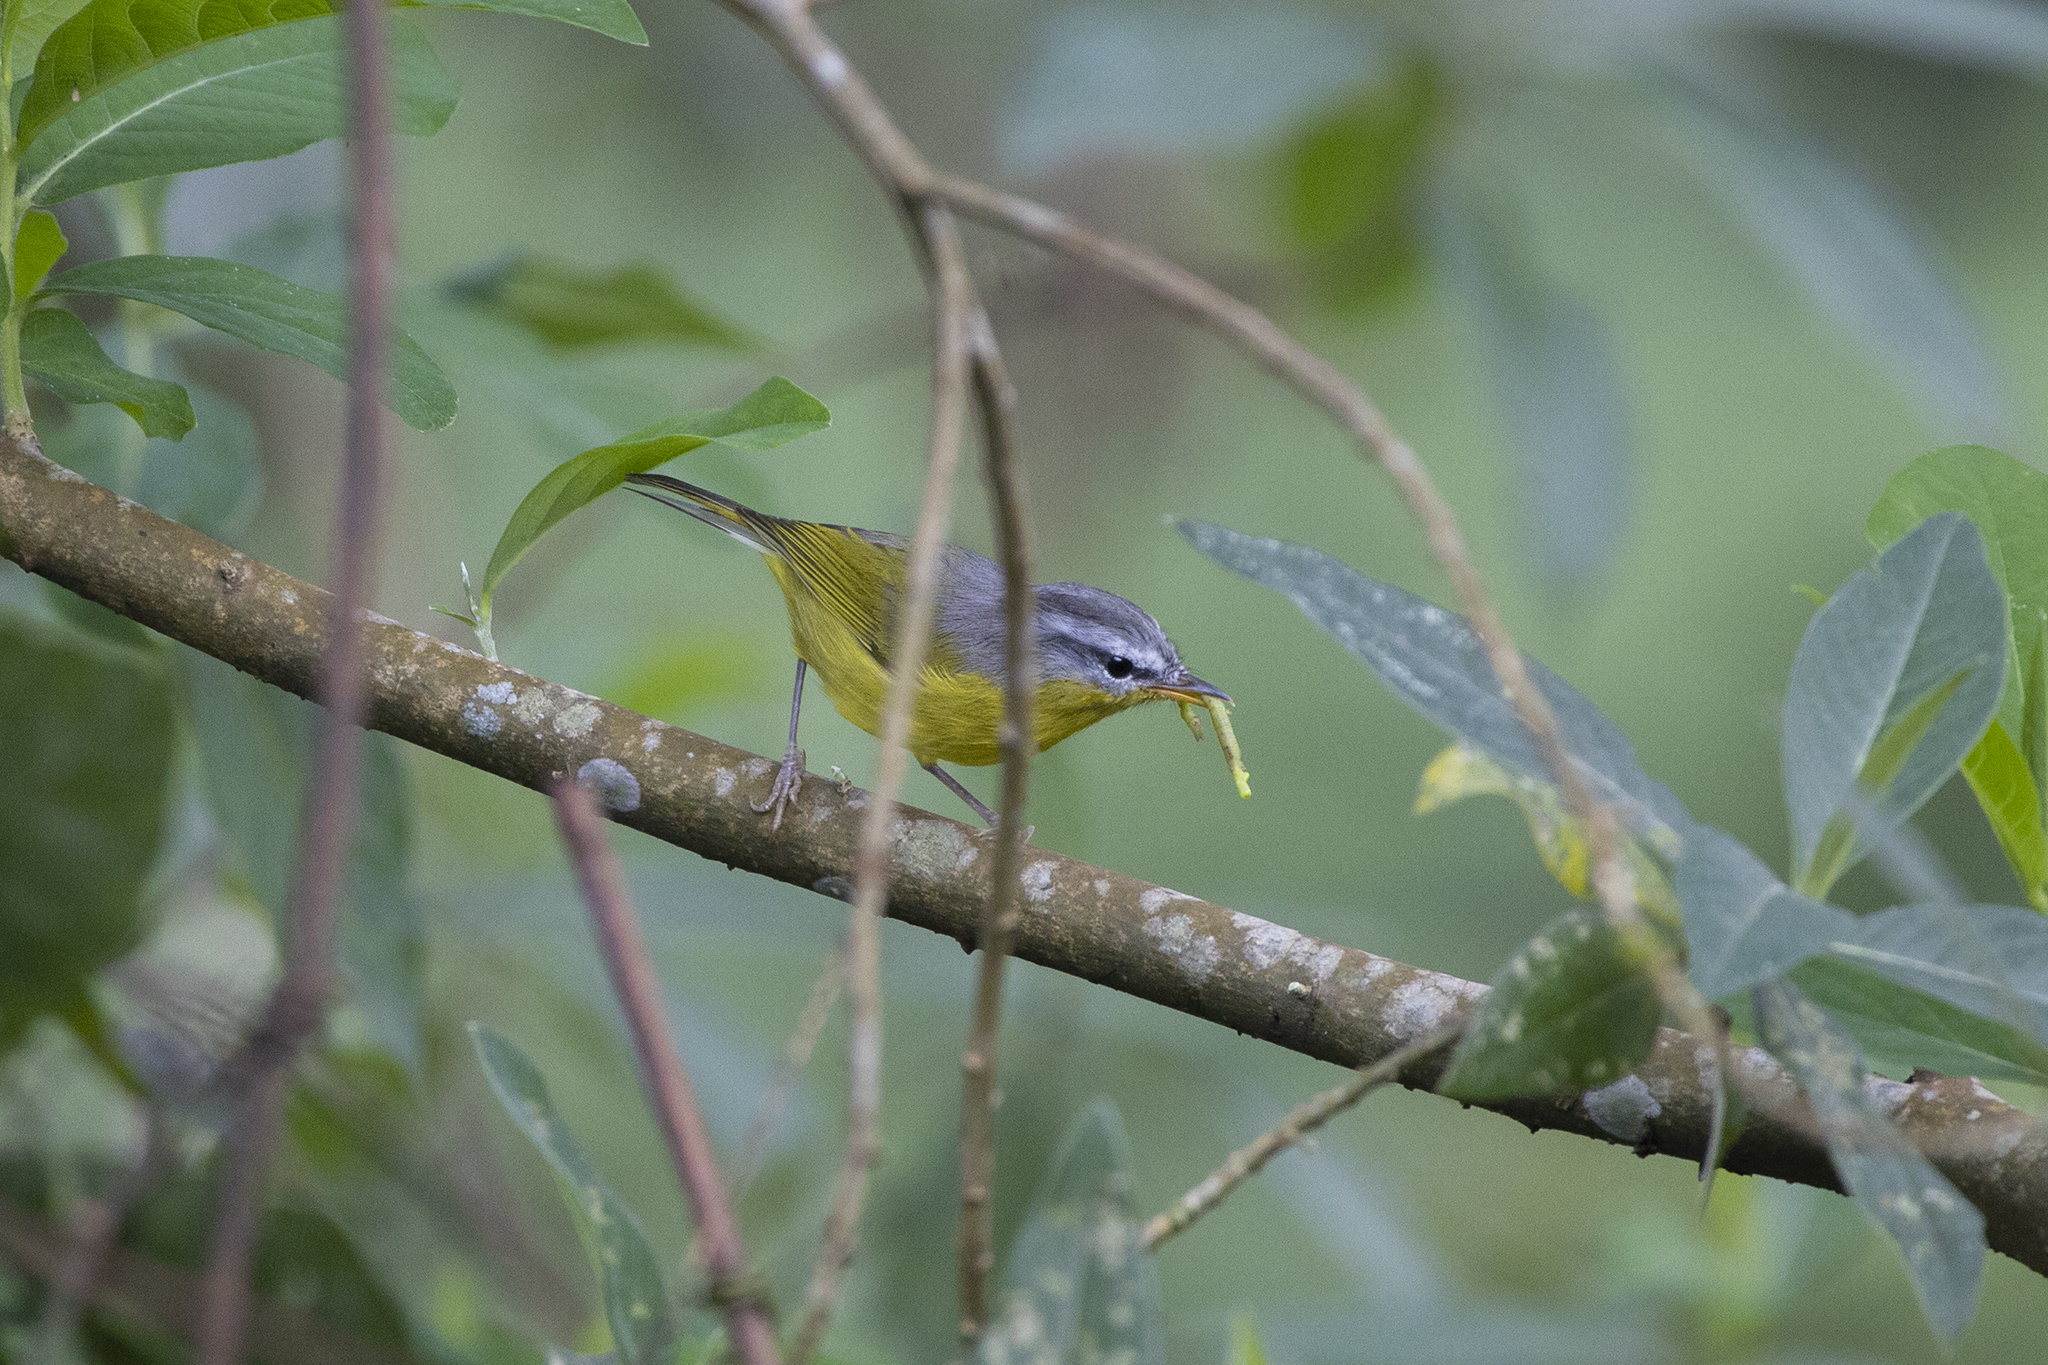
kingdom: Animalia
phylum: Chordata
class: Aves
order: Passeriformes
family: Phylloscopidae
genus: Phylloscopus
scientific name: Phylloscopus xanthoschistos
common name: Grey-hooded warbler
